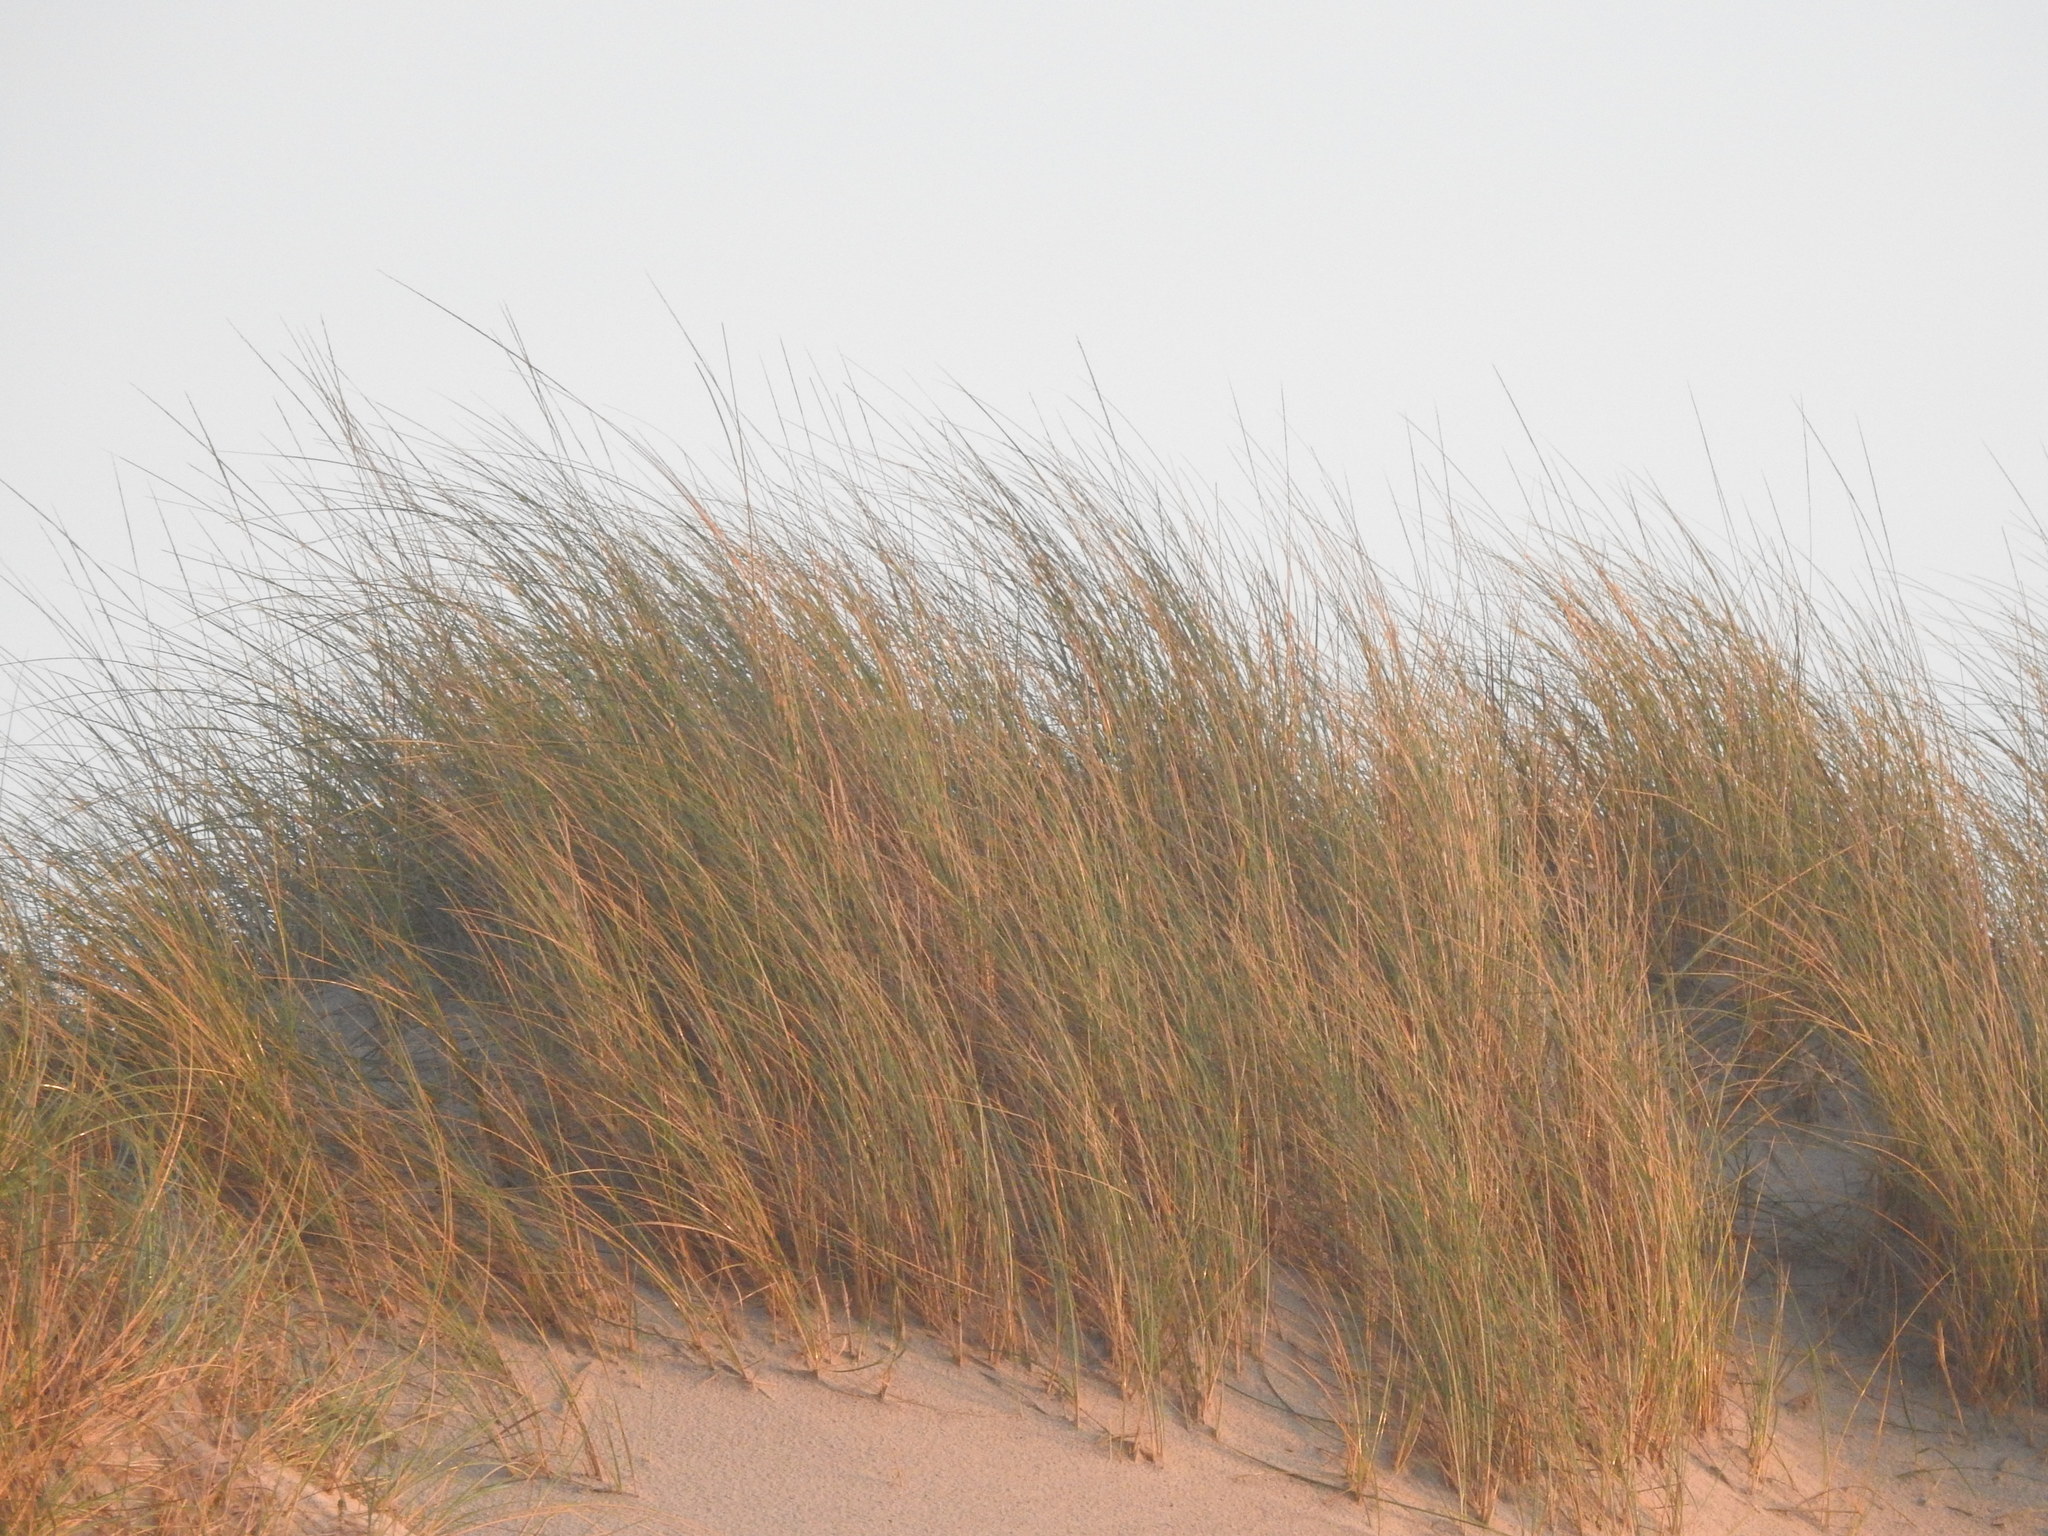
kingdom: Plantae
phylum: Tracheophyta
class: Liliopsida
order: Poales
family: Poaceae
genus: Calamagrostis
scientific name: Calamagrostis arenaria
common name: European beachgrass
